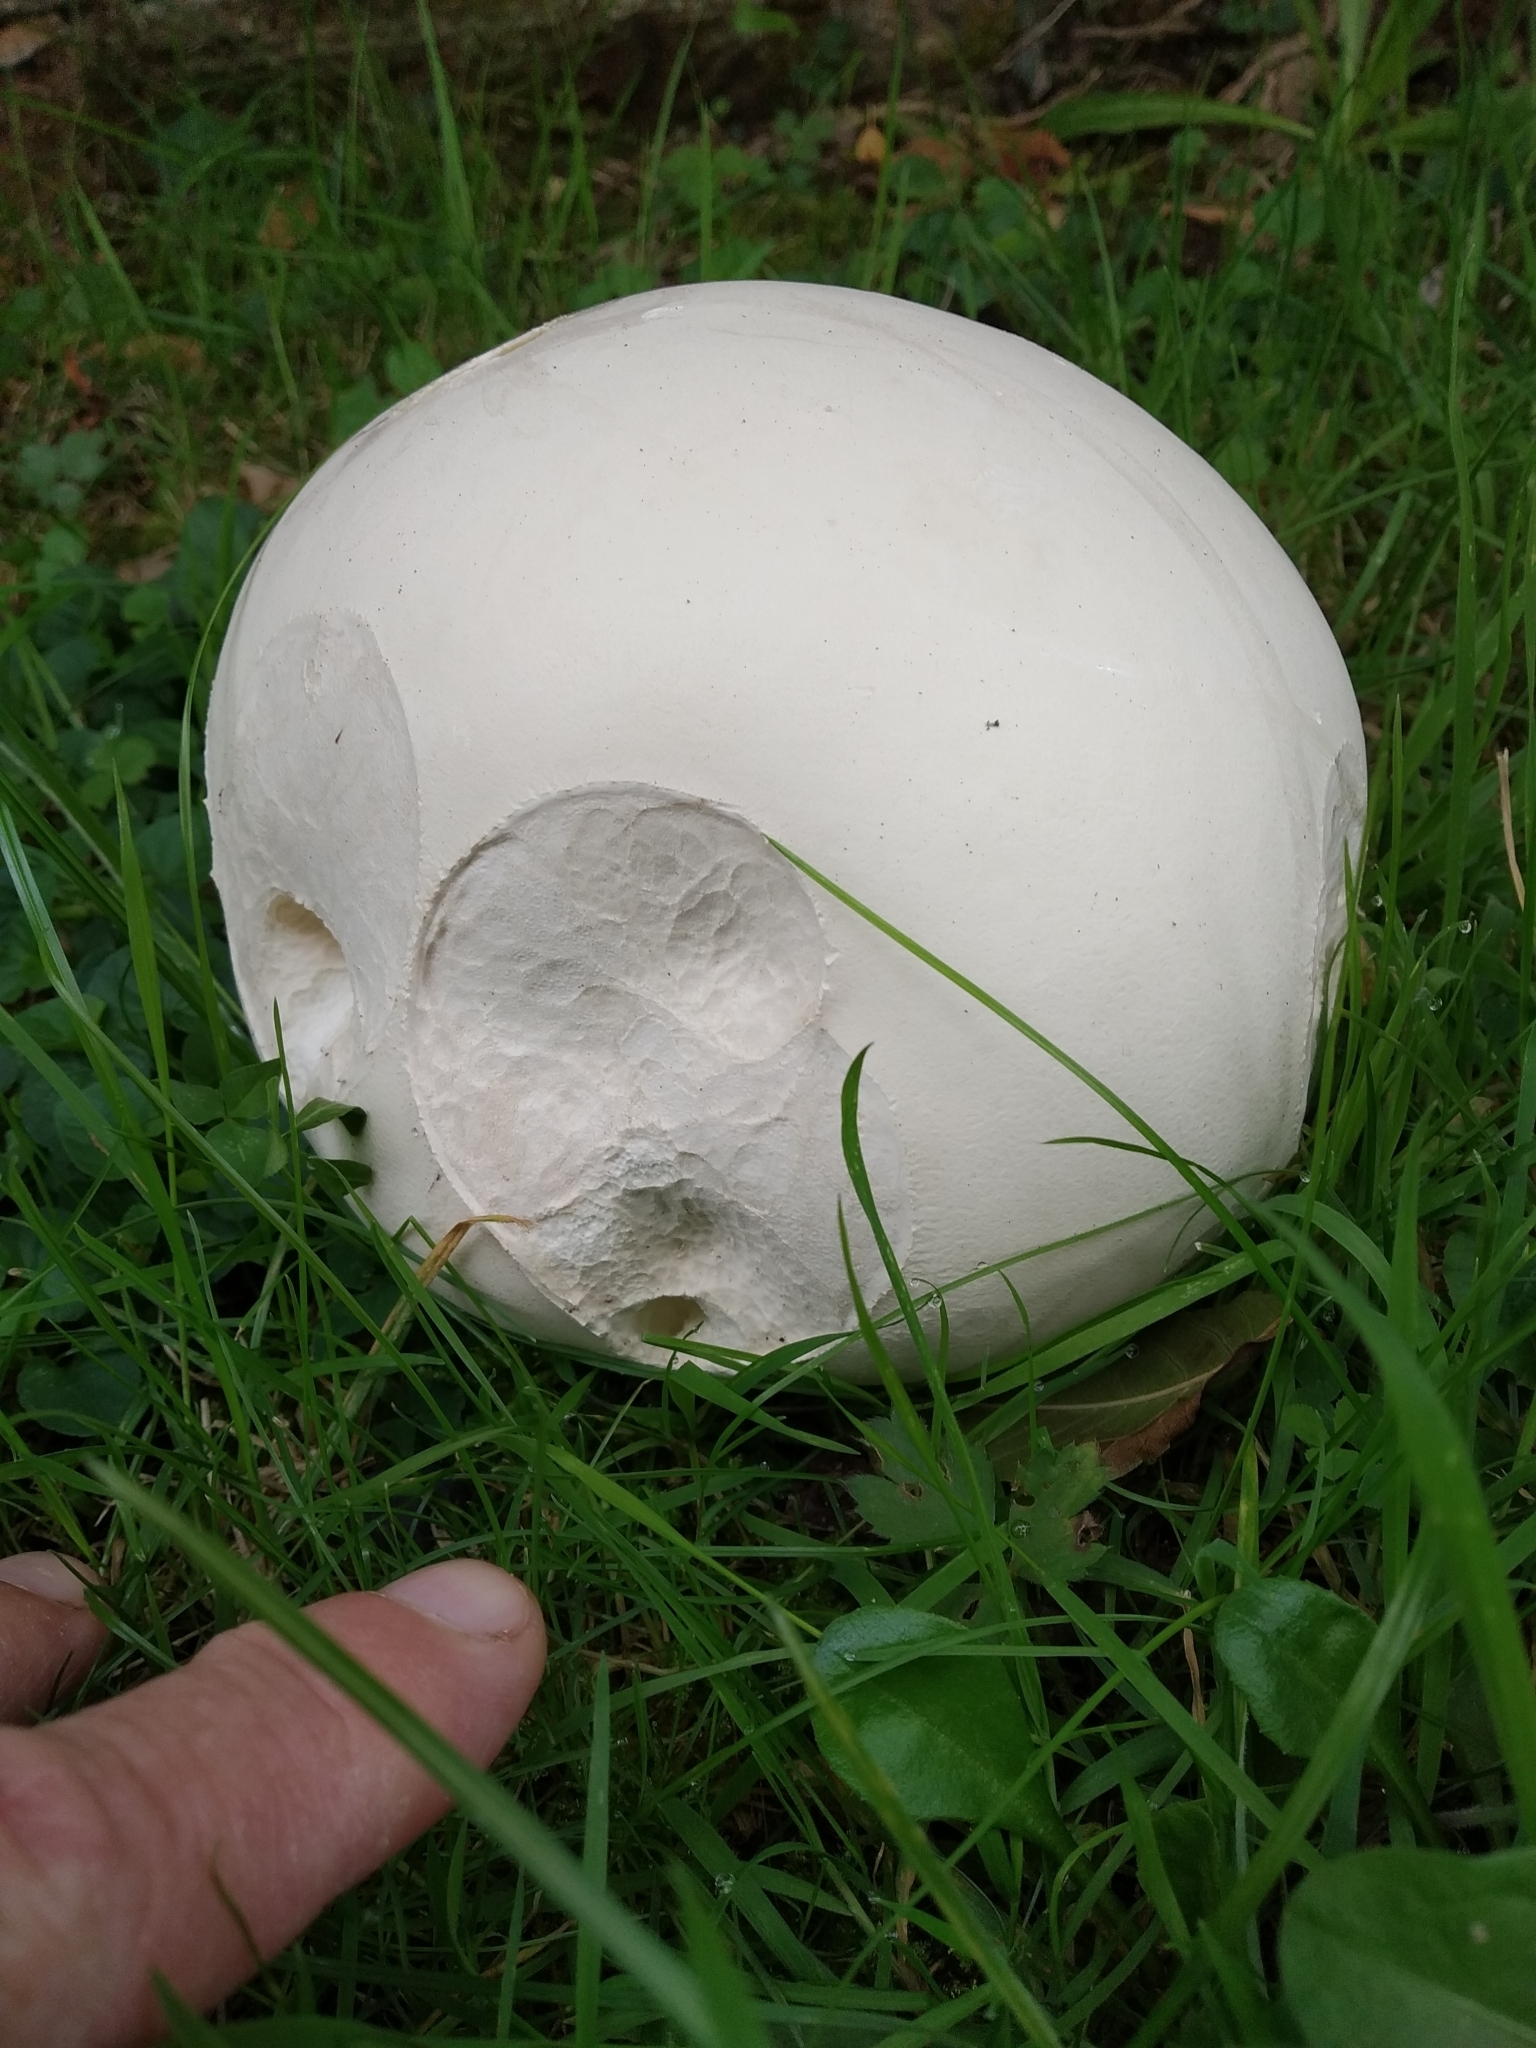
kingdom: Fungi
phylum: Basidiomycota
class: Agaricomycetes
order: Agaricales
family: Lycoperdaceae
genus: Calvatia
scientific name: Calvatia gigantea
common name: Giant puffball
